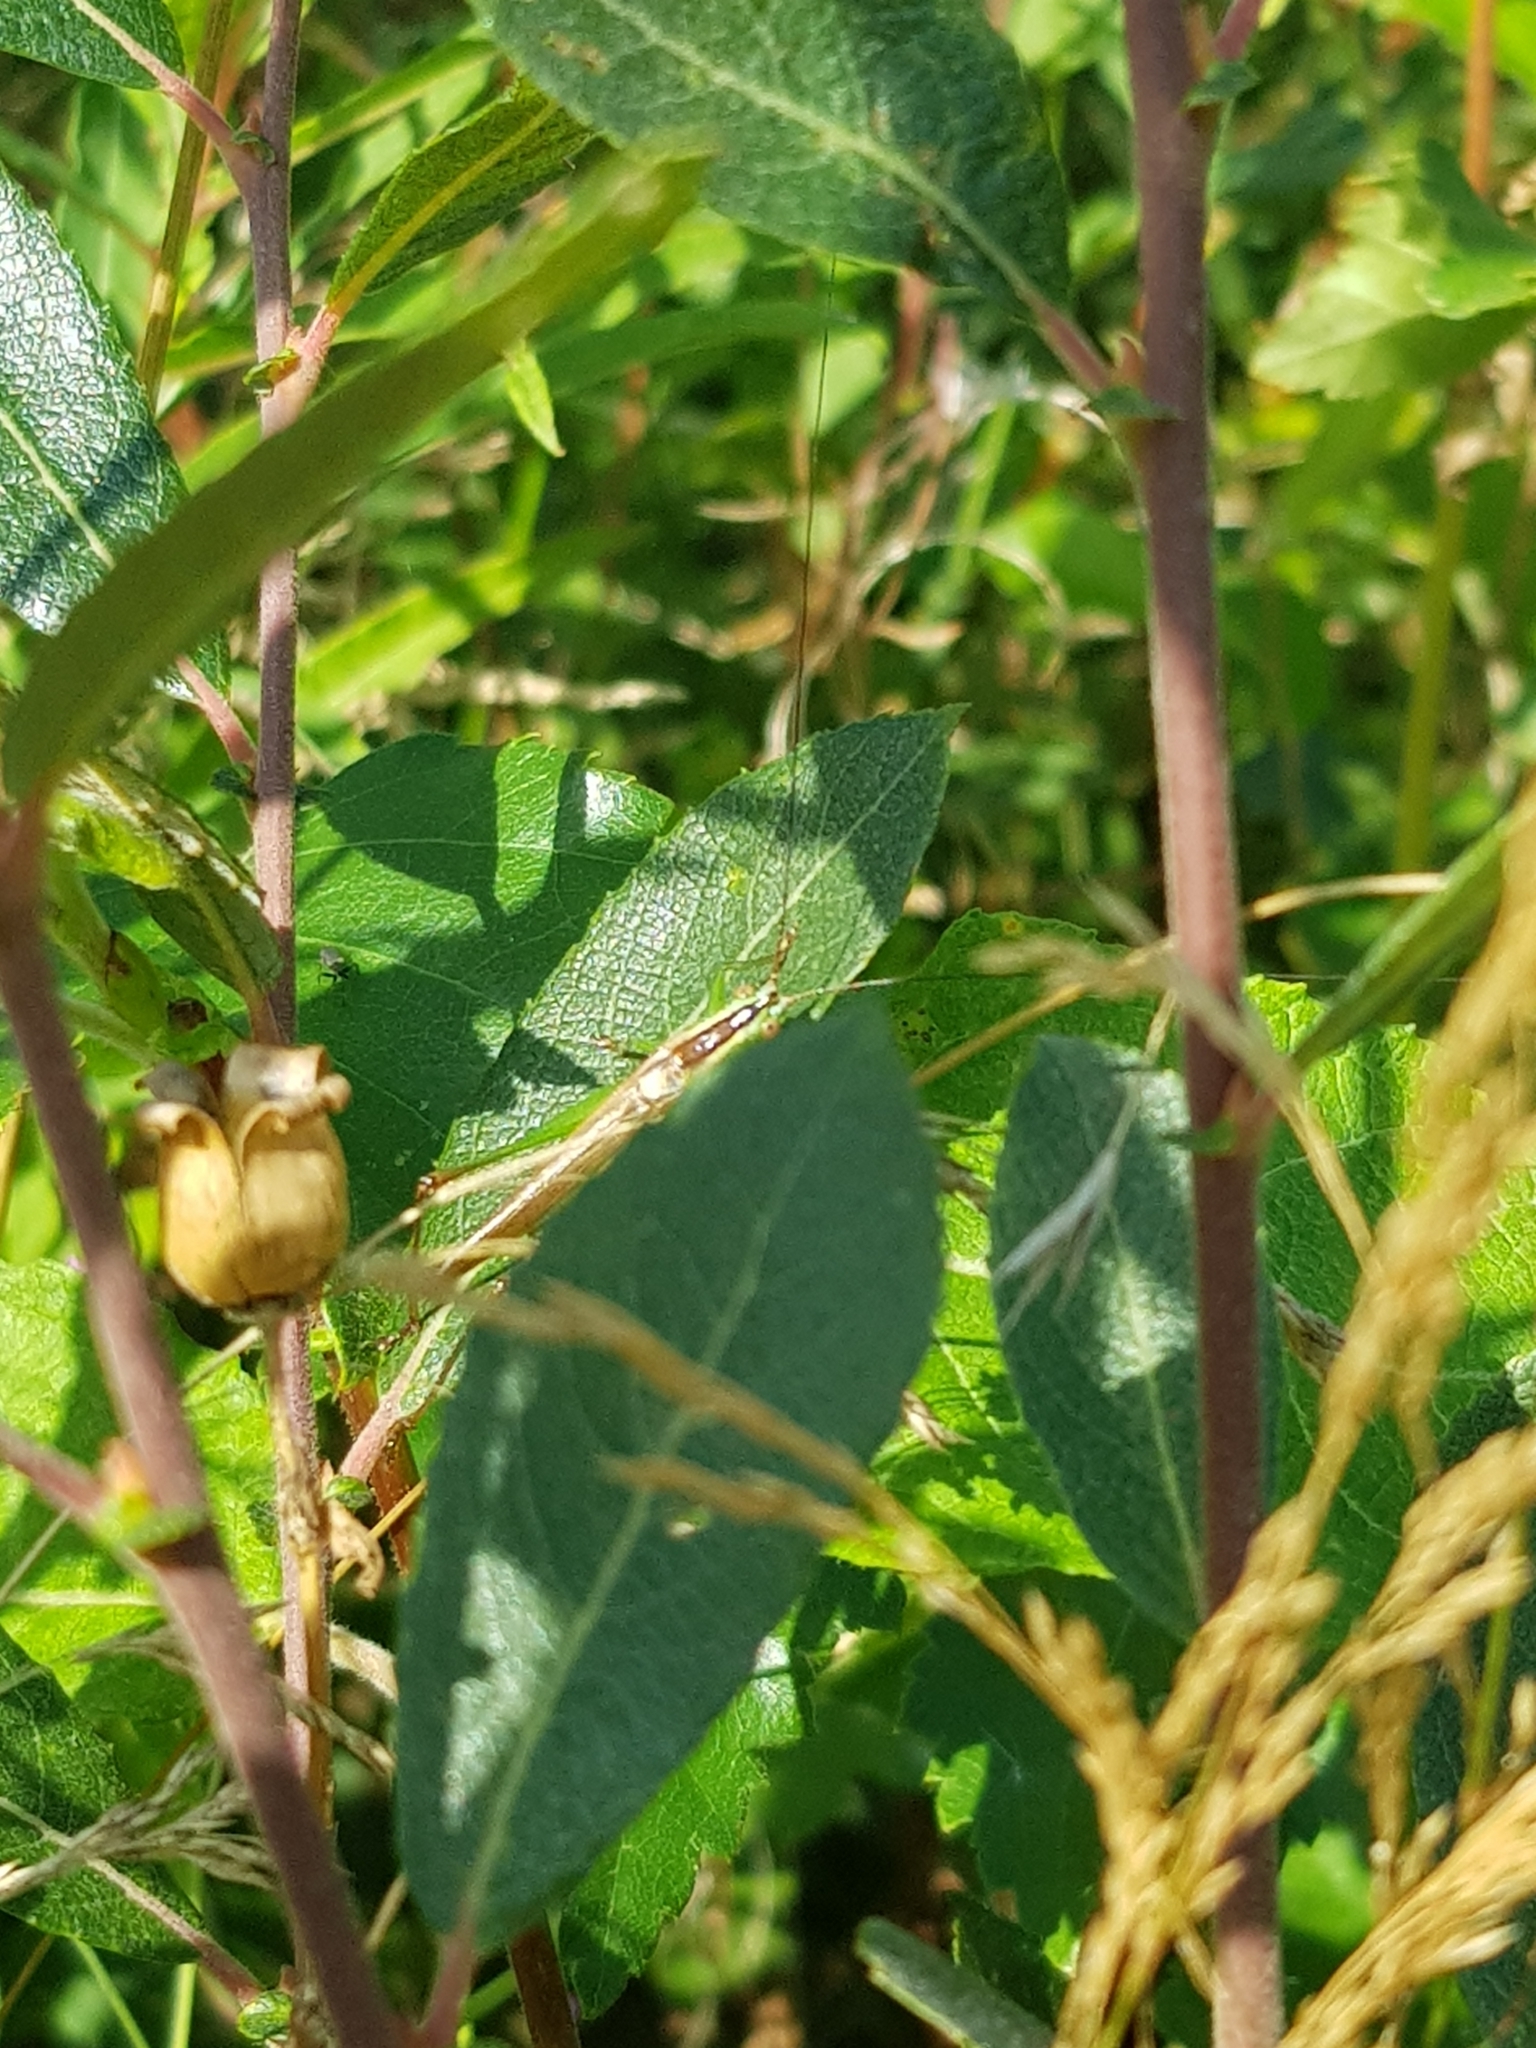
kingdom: Animalia
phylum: Arthropoda
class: Insecta
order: Orthoptera
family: Tettigoniidae
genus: Conocephalus
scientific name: Conocephalus fuscus
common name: Long-winged conehead
